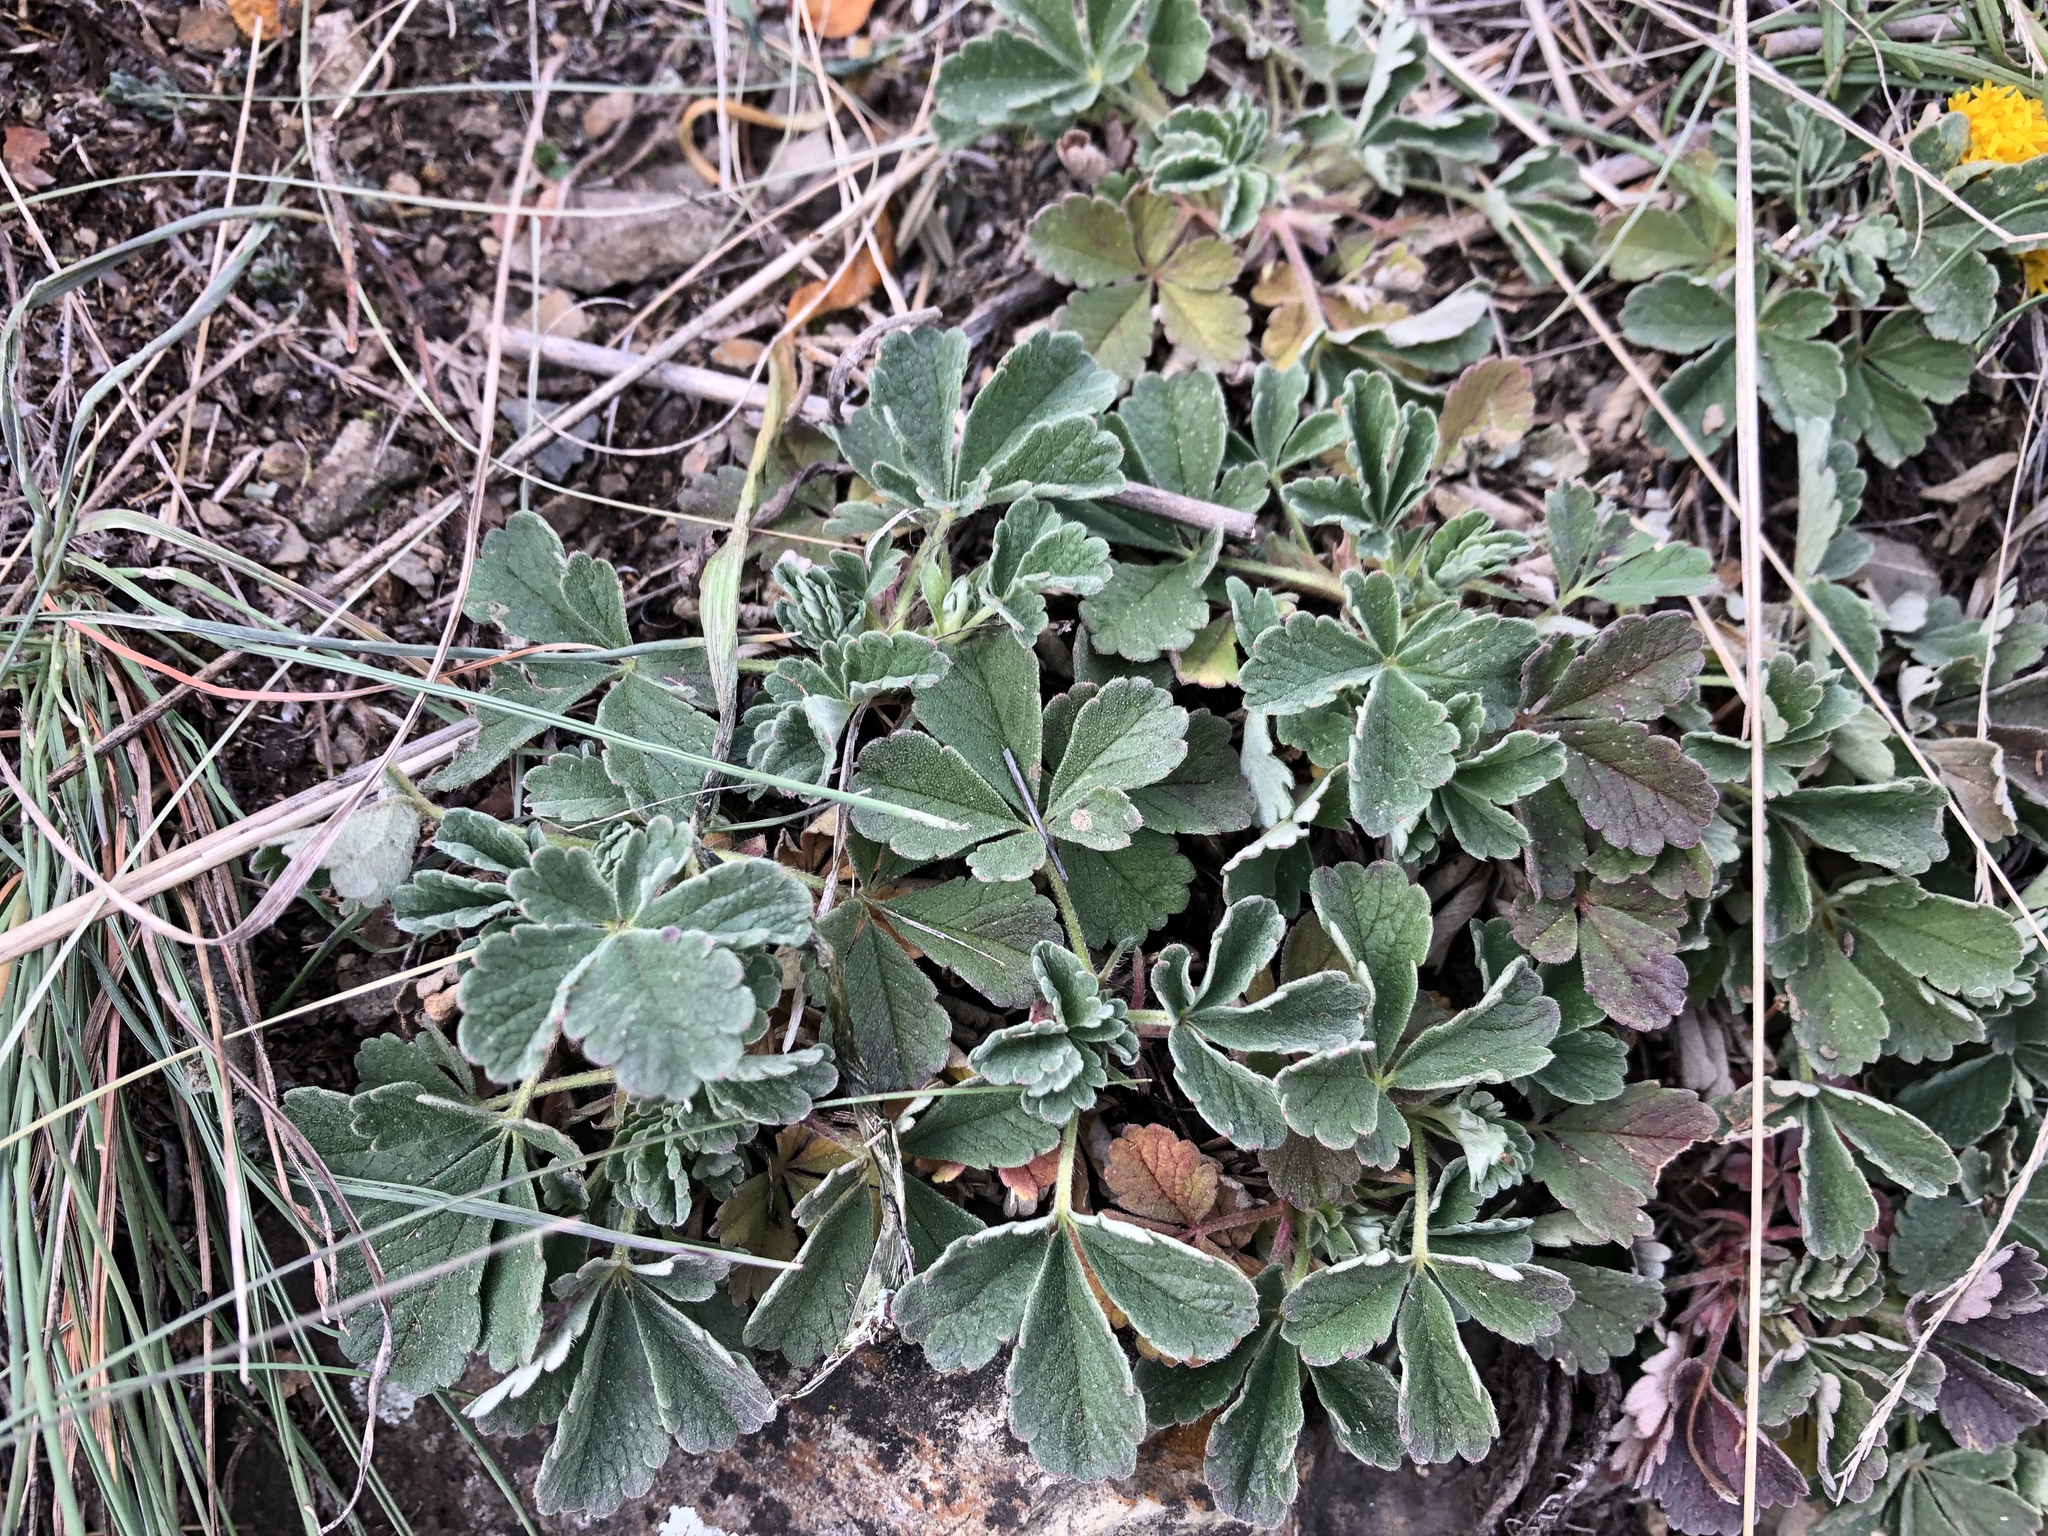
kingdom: Plantae
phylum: Tracheophyta
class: Magnoliopsida
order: Rosales
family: Rosaceae
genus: Potentilla
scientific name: Potentilla incana
